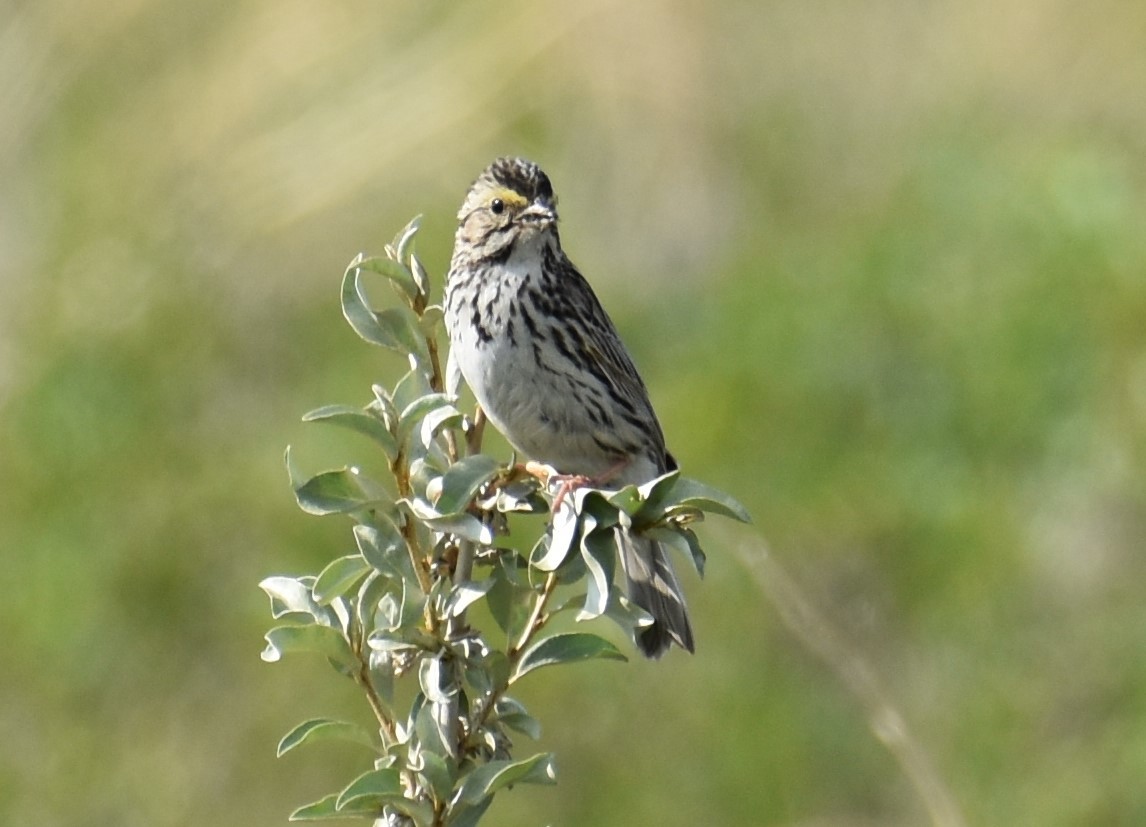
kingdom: Animalia
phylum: Chordata
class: Aves
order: Passeriformes
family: Passerellidae
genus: Passerculus
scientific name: Passerculus sandwichensis
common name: Savannah sparrow
